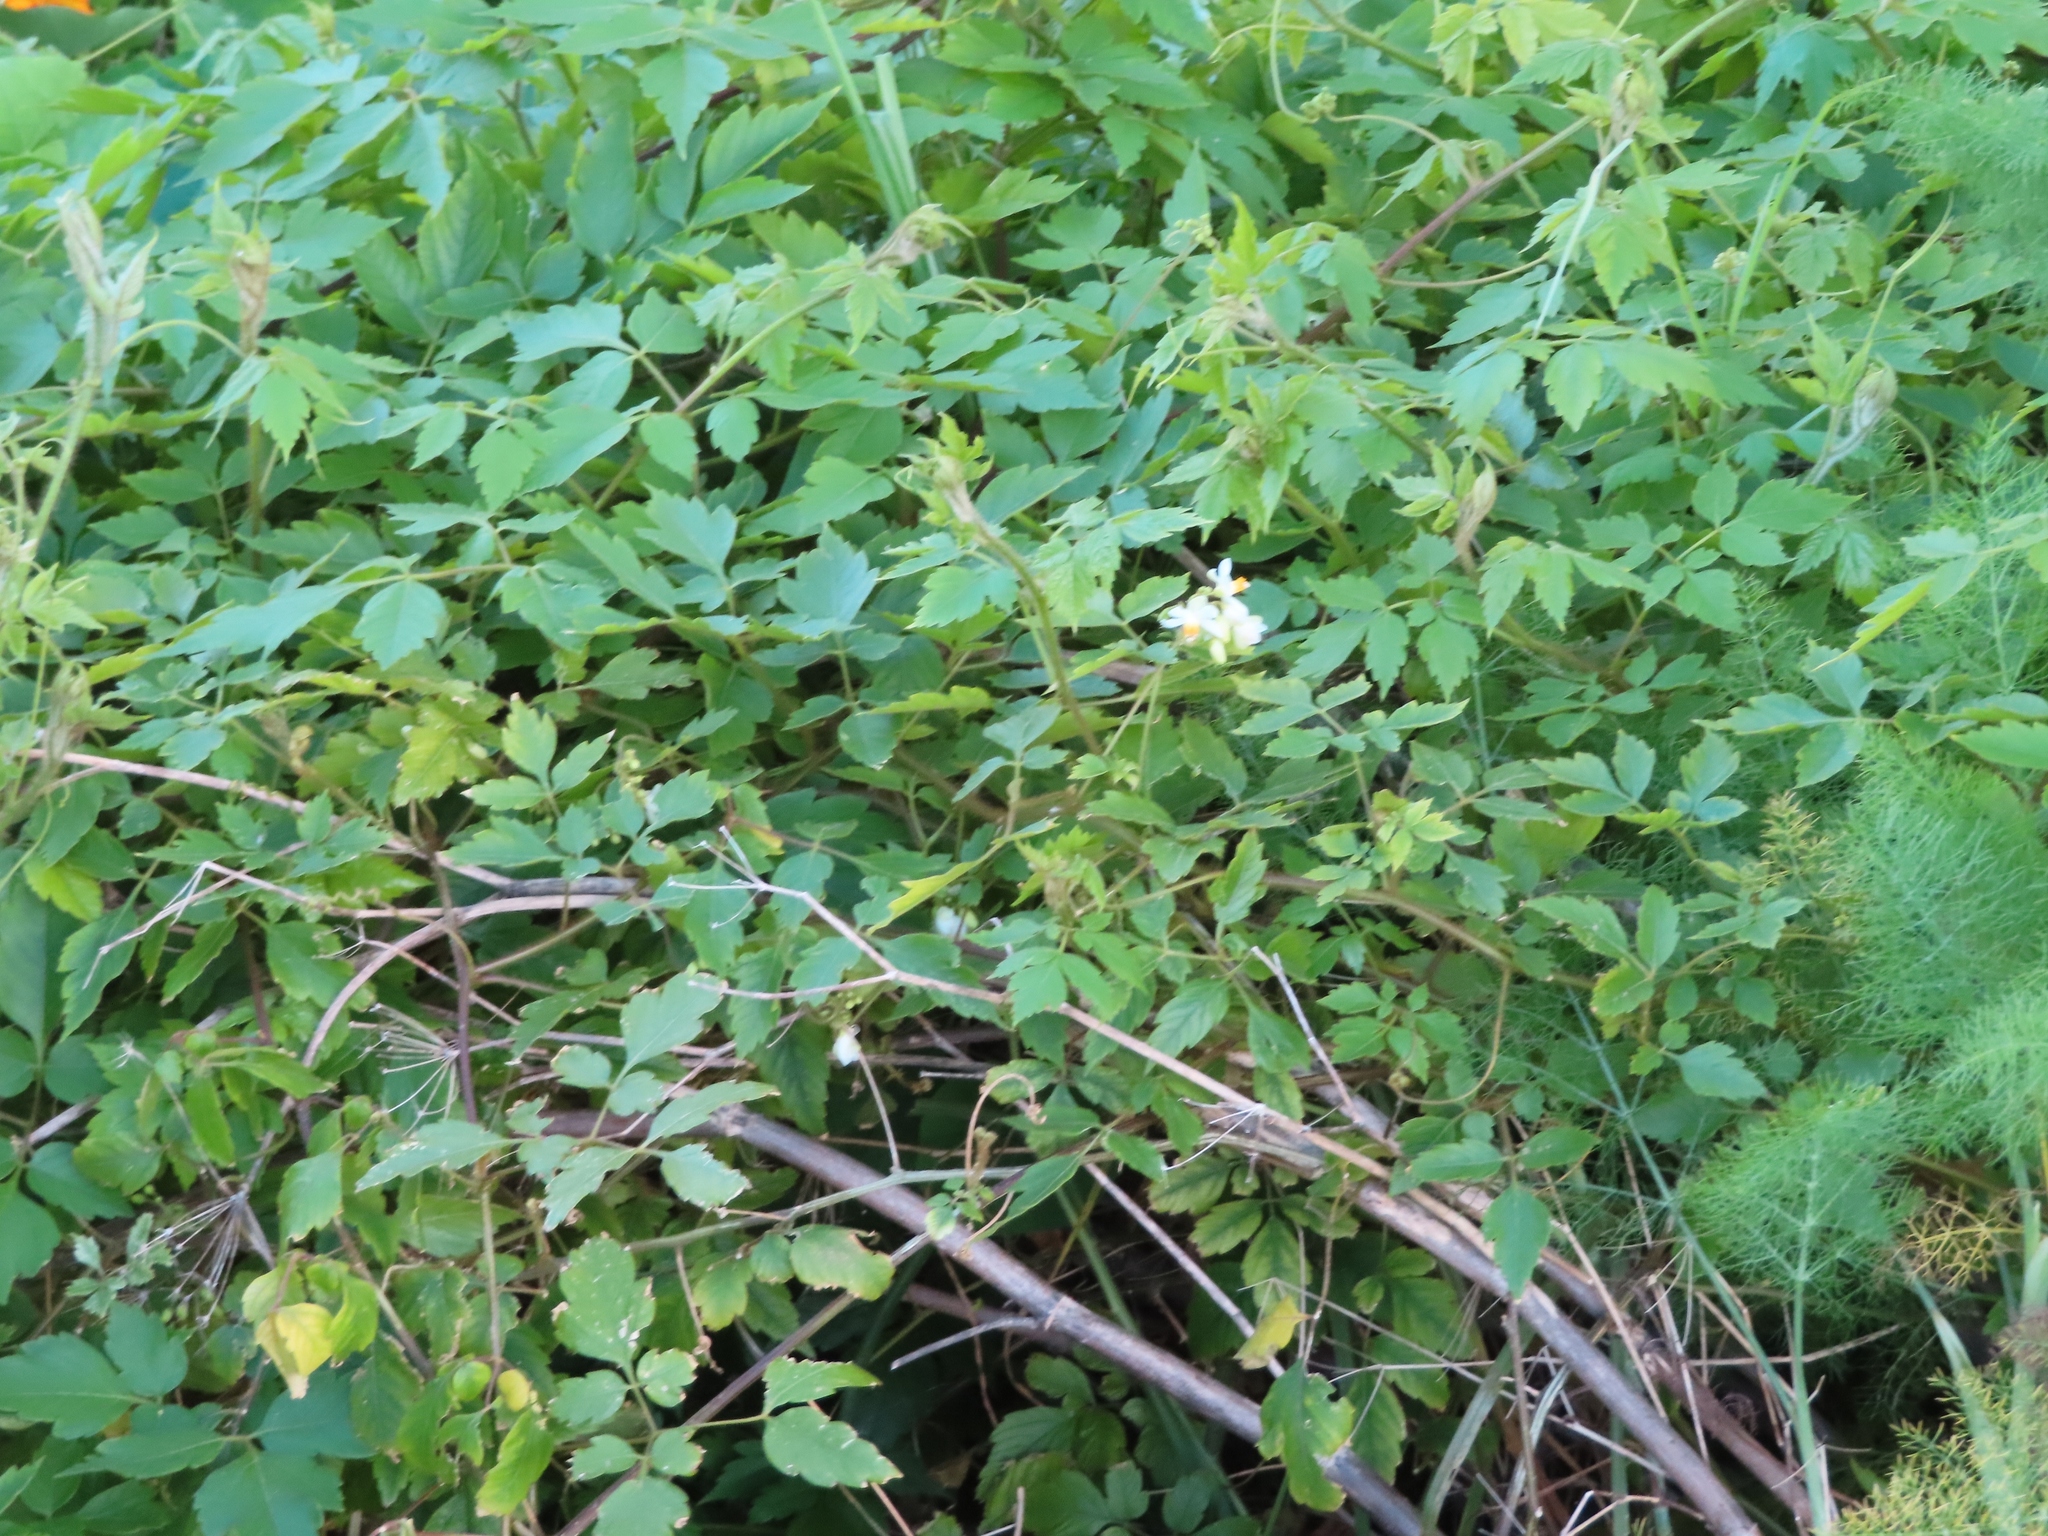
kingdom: Plantae
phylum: Tracheophyta
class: Magnoliopsida
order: Sapindales
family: Sapindaceae
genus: Cardiospermum
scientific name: Cardiospermum grandiflorum
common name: Balloon vine
